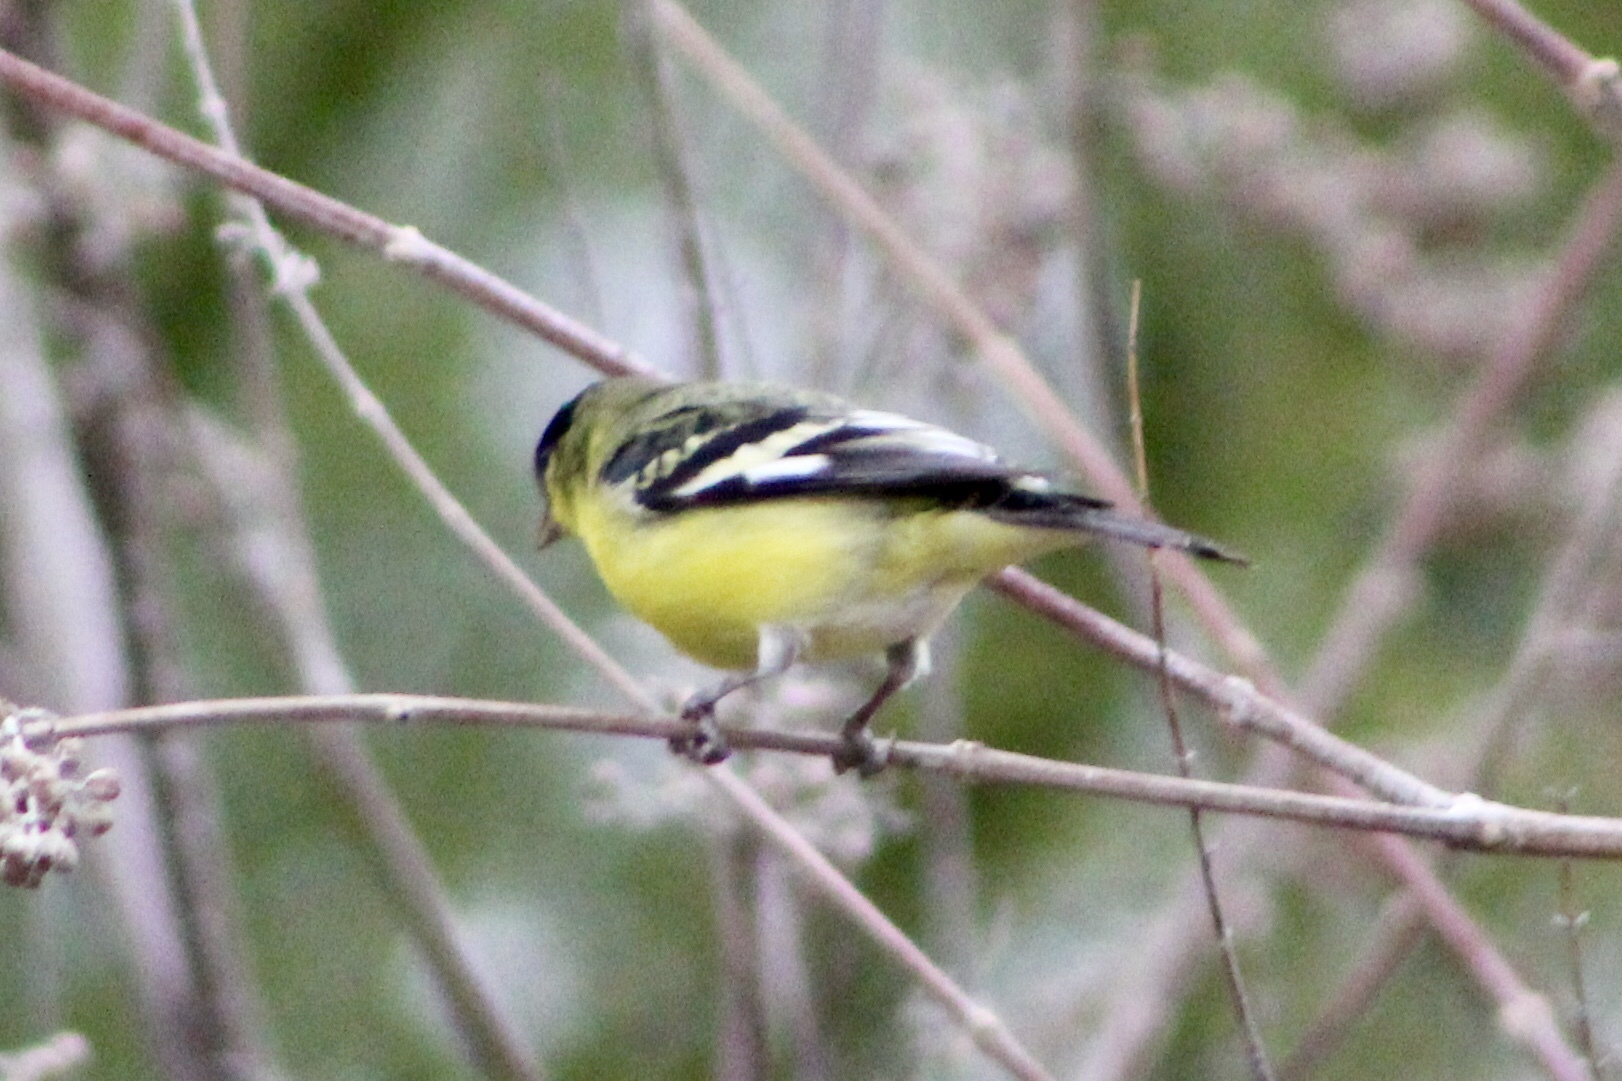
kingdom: Animalia
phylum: Chordata
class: Aves
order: Passeriformes
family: Fringillidae
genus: Spinus
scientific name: Spinus psaltria
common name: Lesser goldfinch
